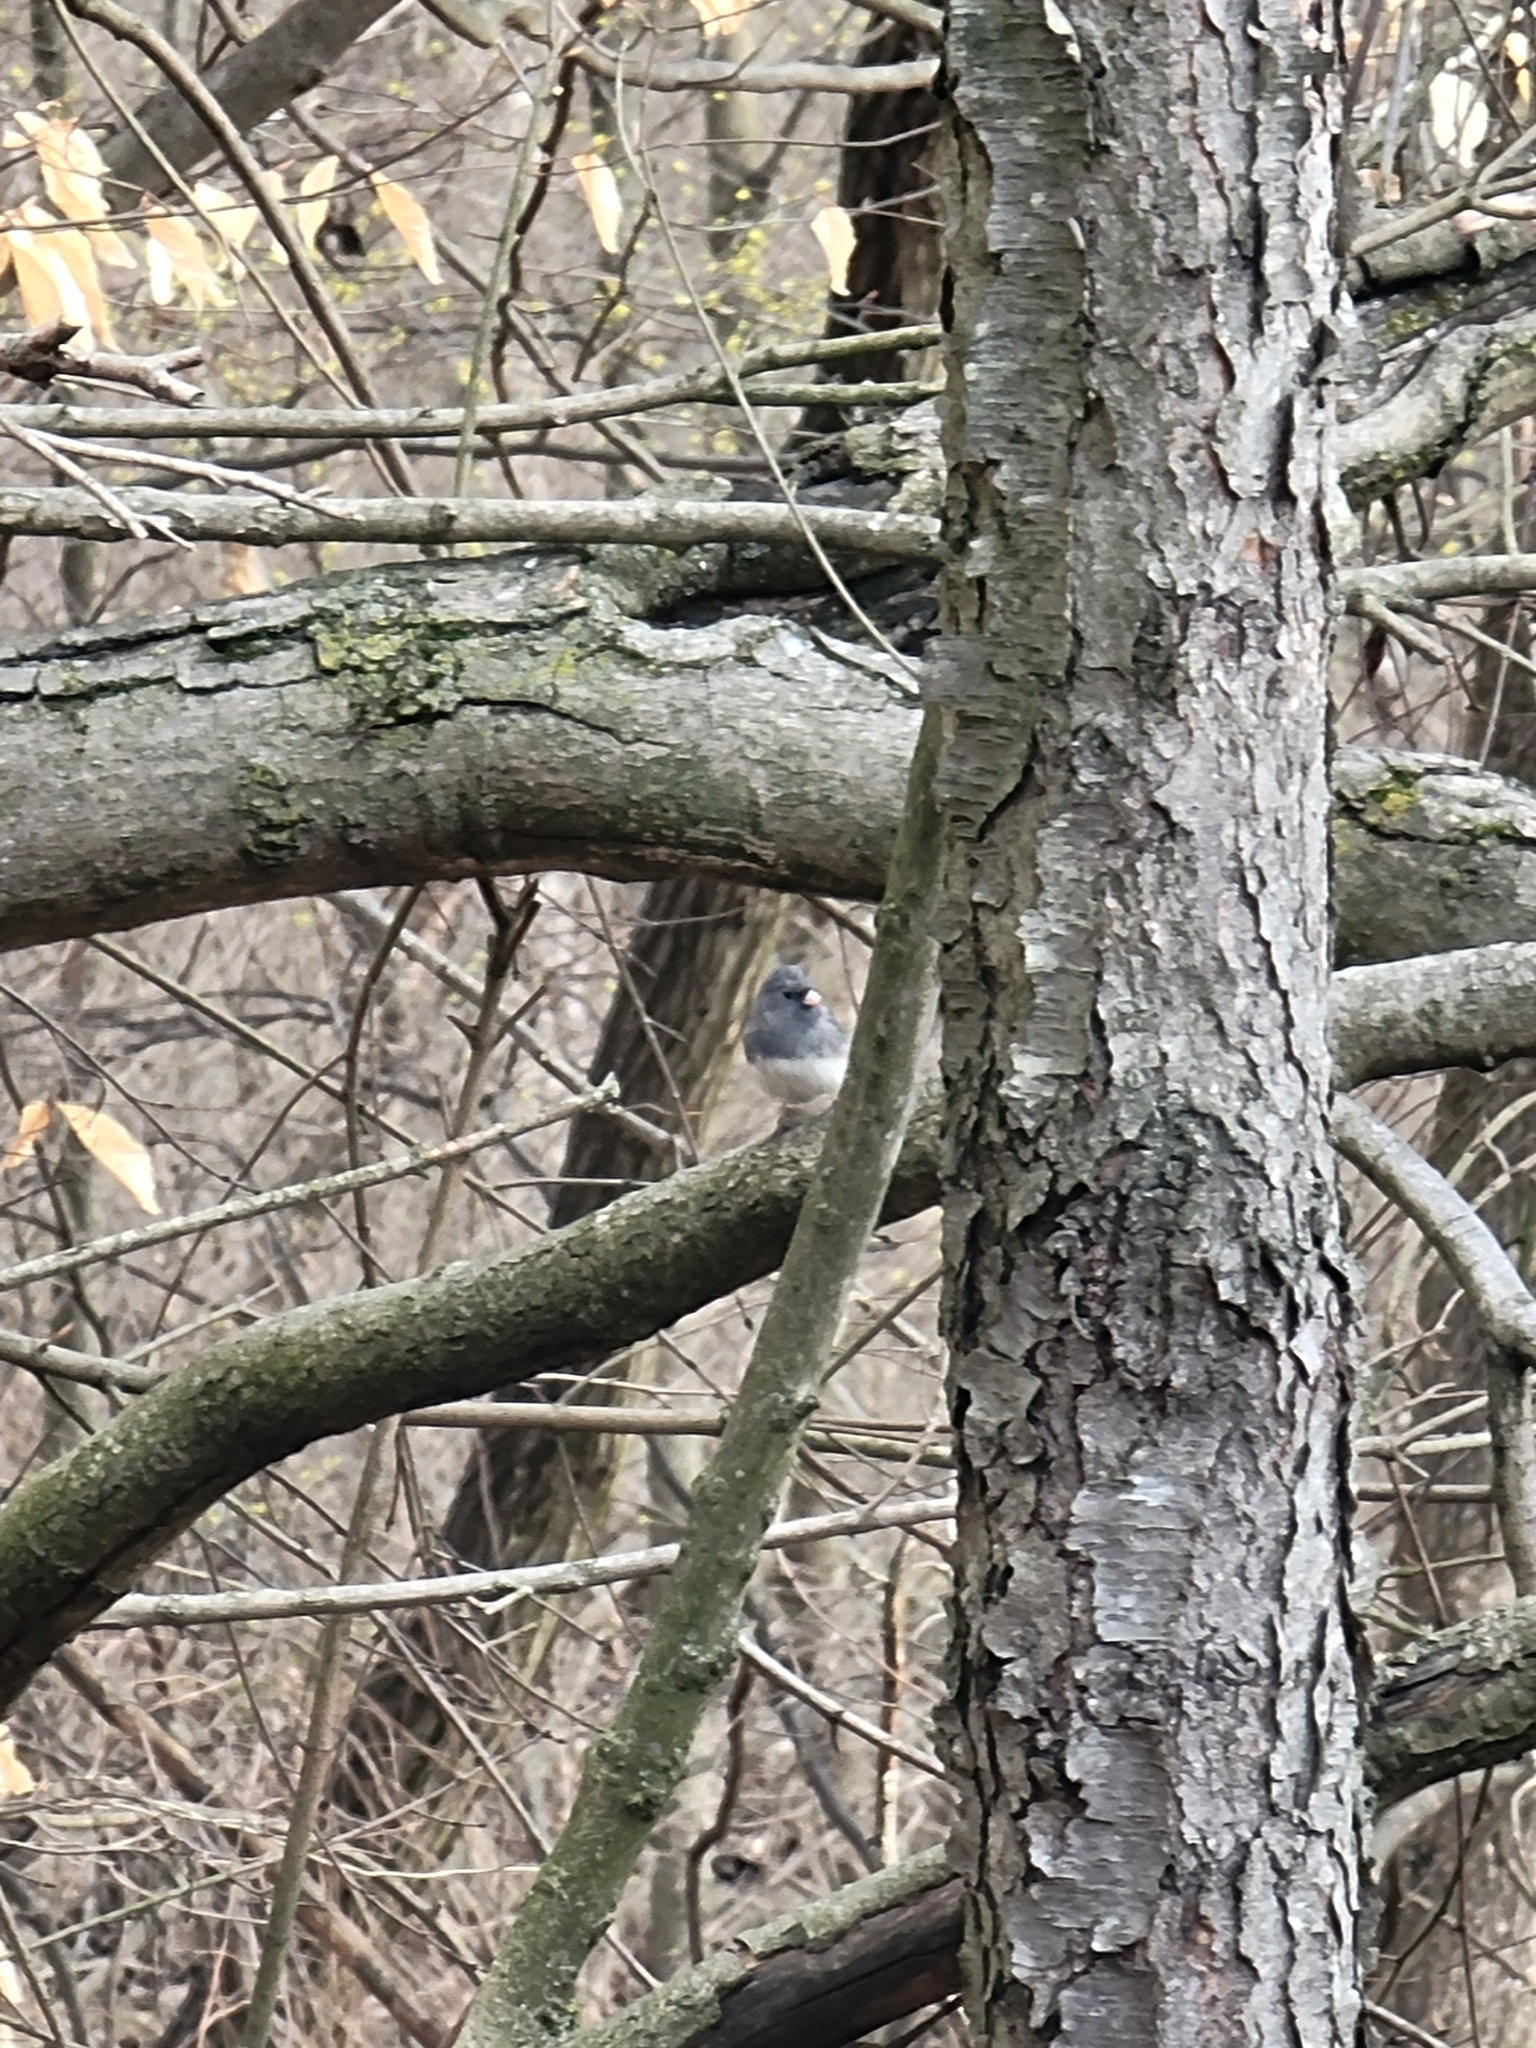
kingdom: Animalia
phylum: Chordata
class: Aves
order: Passeriformes
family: Passerellidae
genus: Junco
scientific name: Junco hyemalis
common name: Dark-eyed junco
